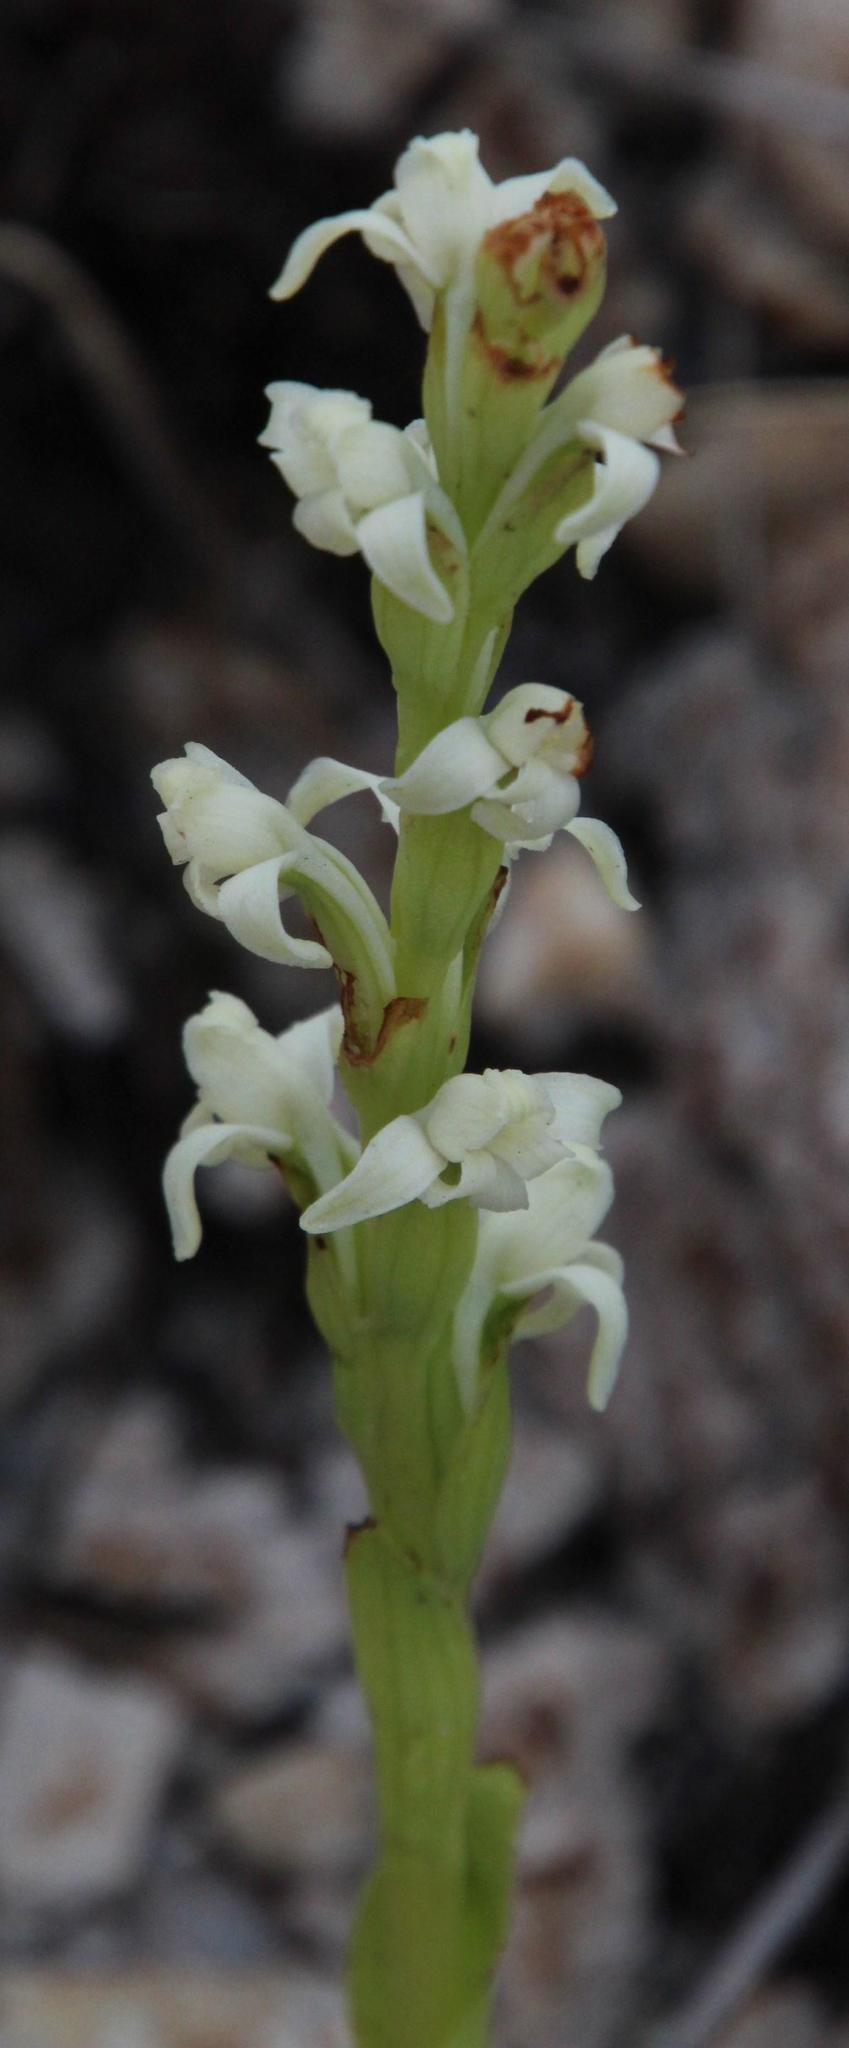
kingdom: Plantae
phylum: Tracheophyta
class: Liliopsida
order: Asparagales
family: Orchidaceae
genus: Satyrium
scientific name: Satyrium stenopetalum
